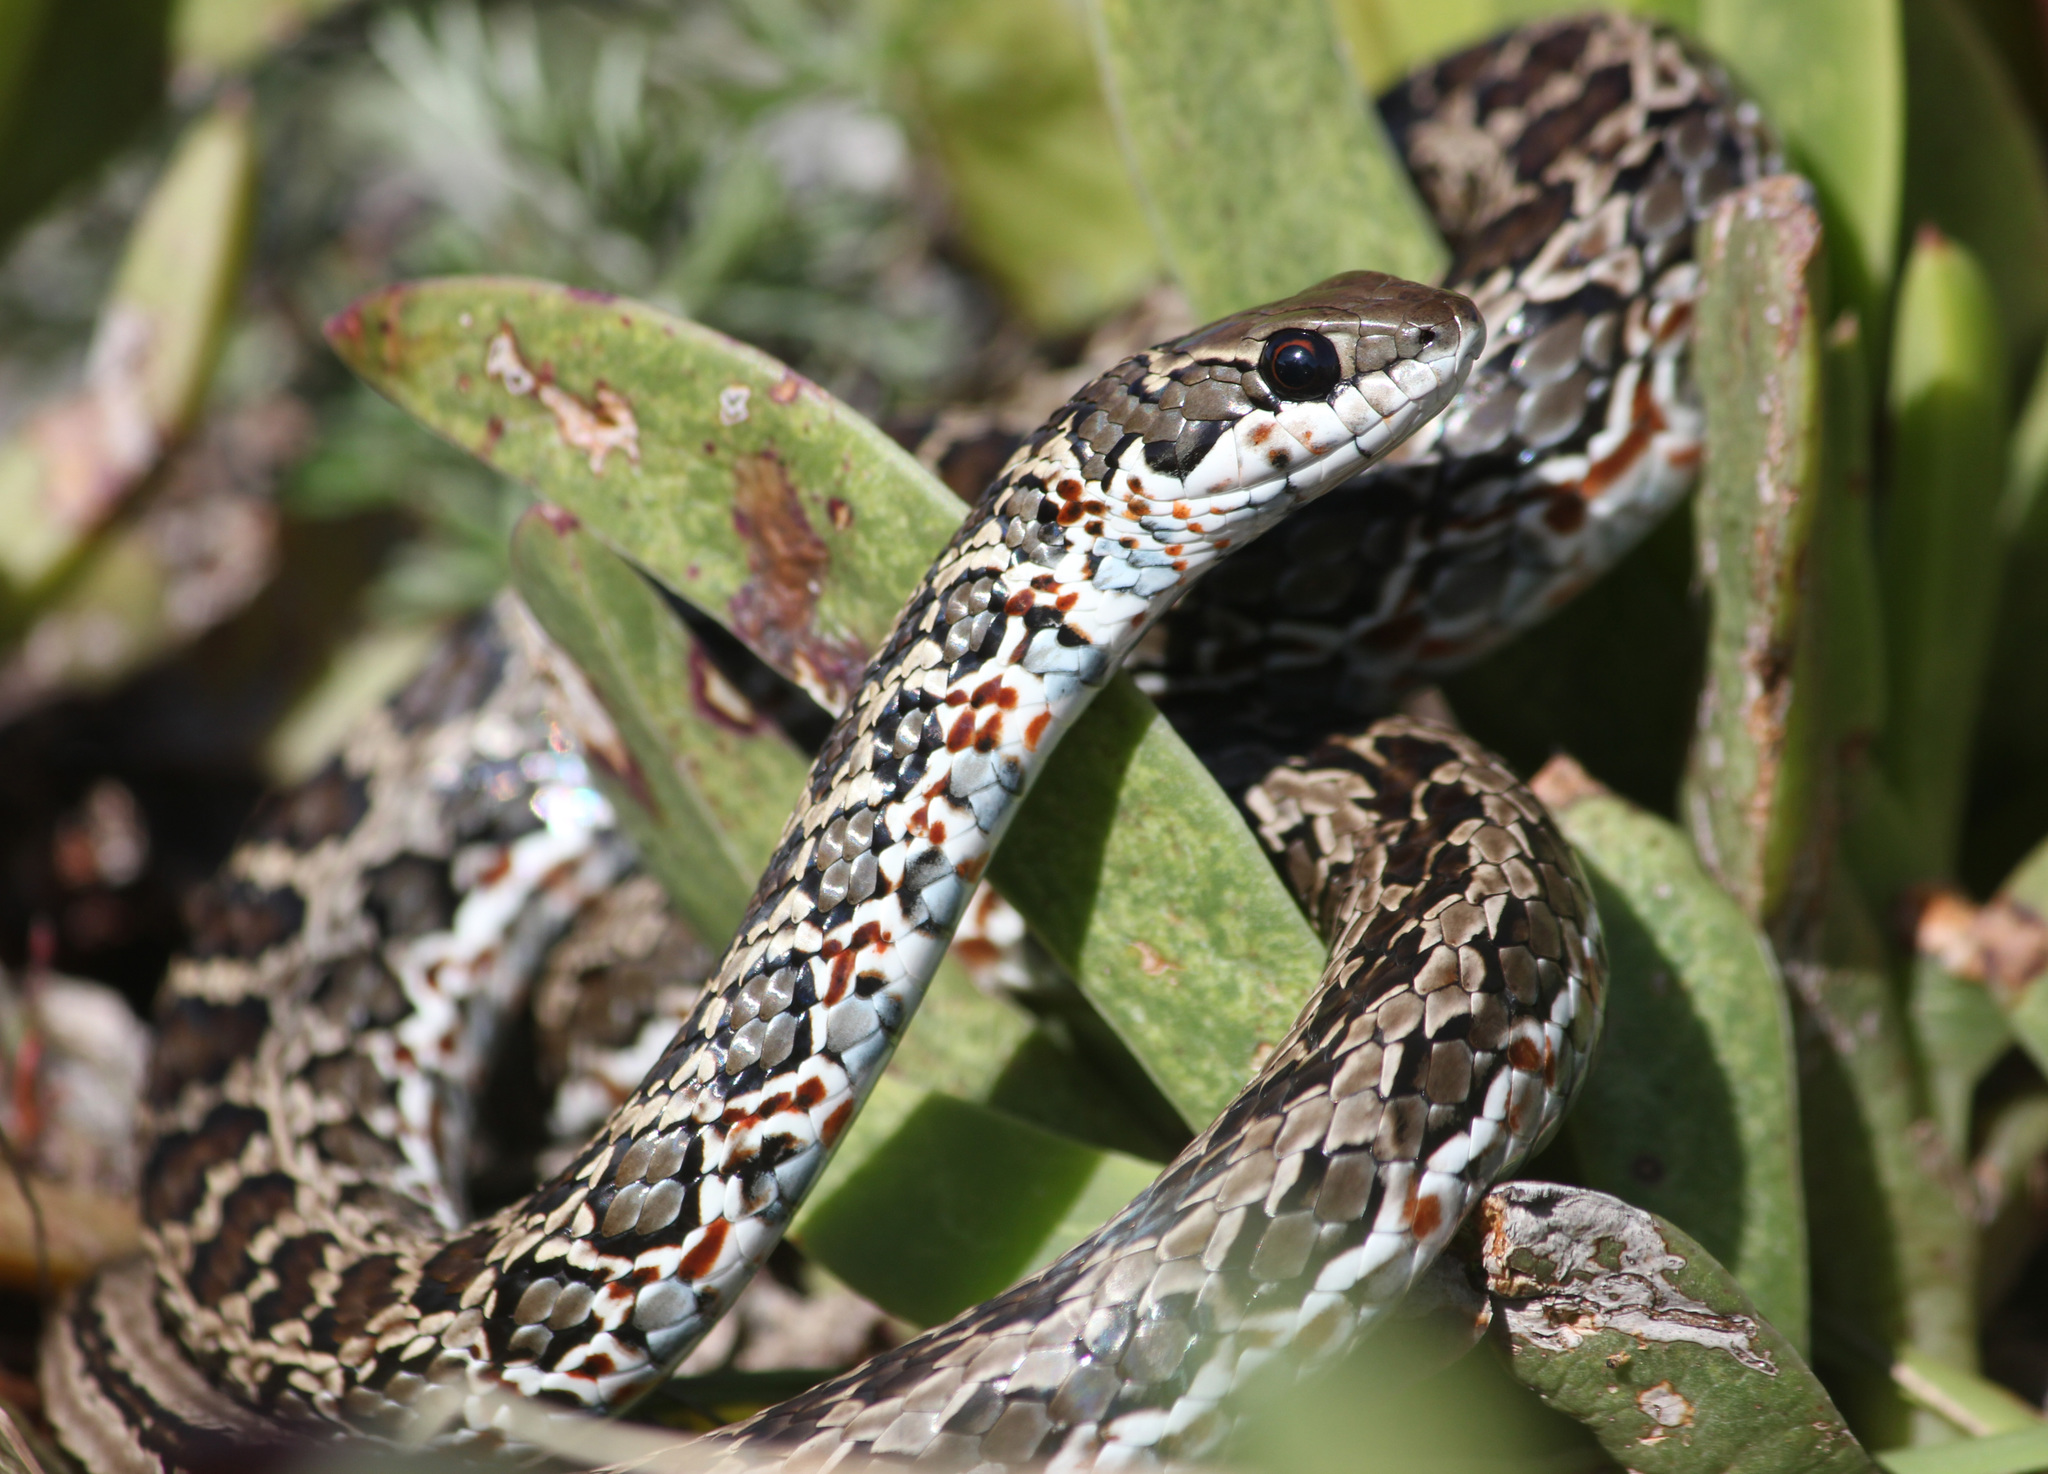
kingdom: Animalia
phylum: Chordata
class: Squamata
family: Psammophiidae
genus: Psammophylax
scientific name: Psammophylax rhombeatus
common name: Rhombic skaapsteker
